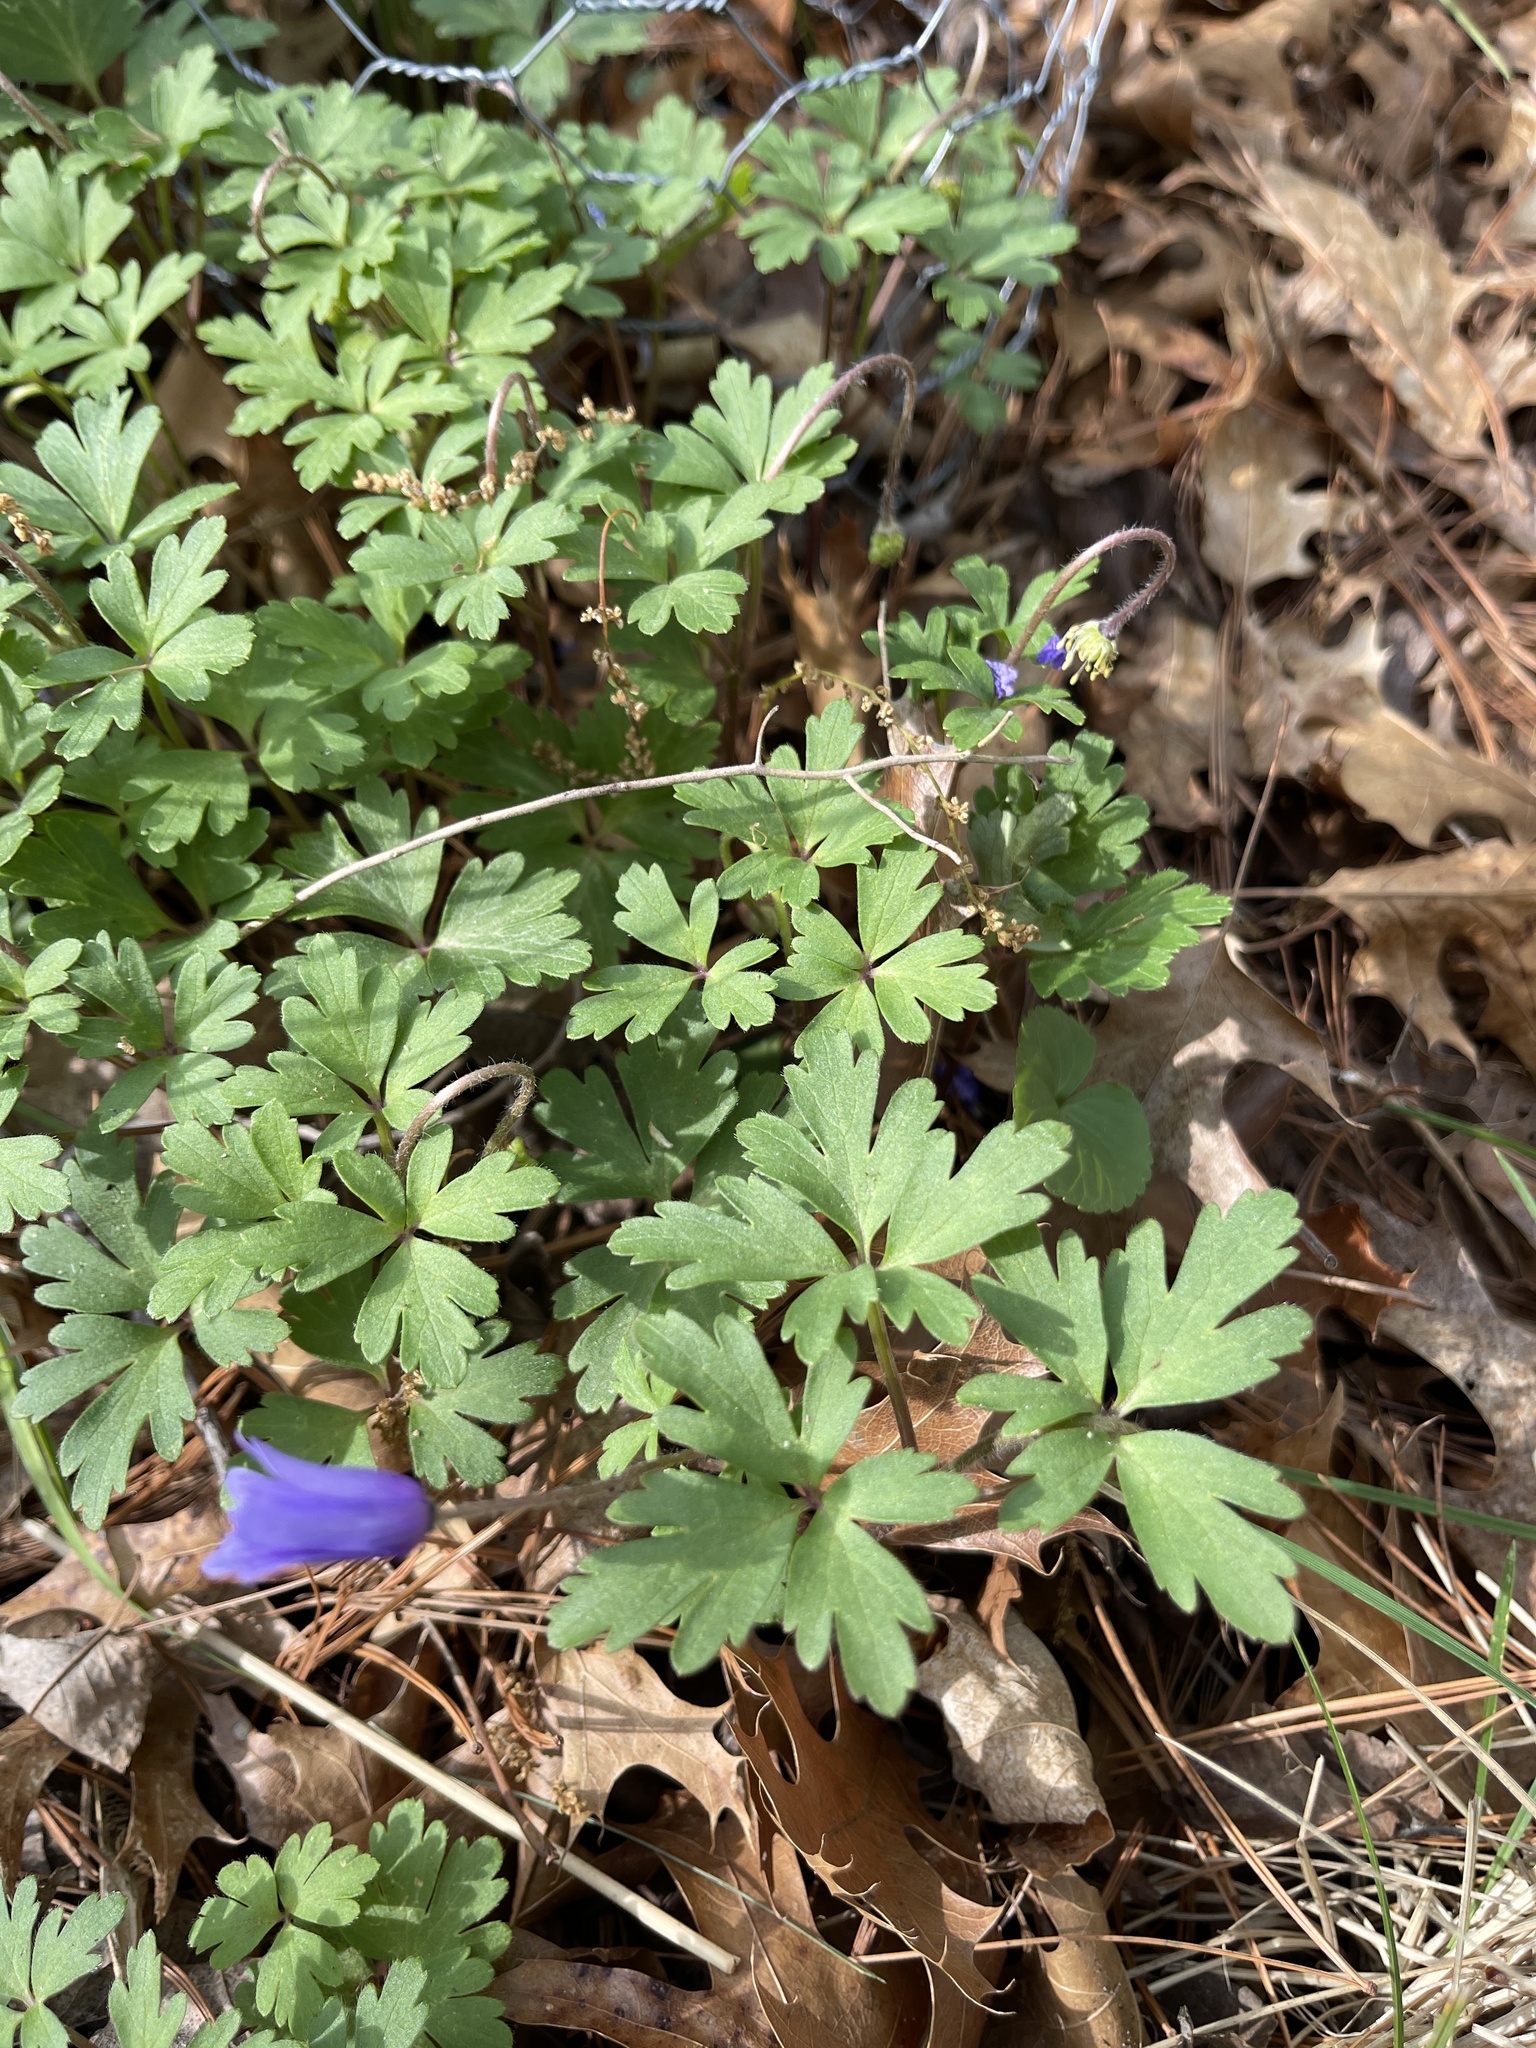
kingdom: Plantae
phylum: Tracheophyta
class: Magnoliopsida
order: Ranunculales
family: Ranunculaceae
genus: Anemone
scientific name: Anemone blanda
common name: Balkan anemone
